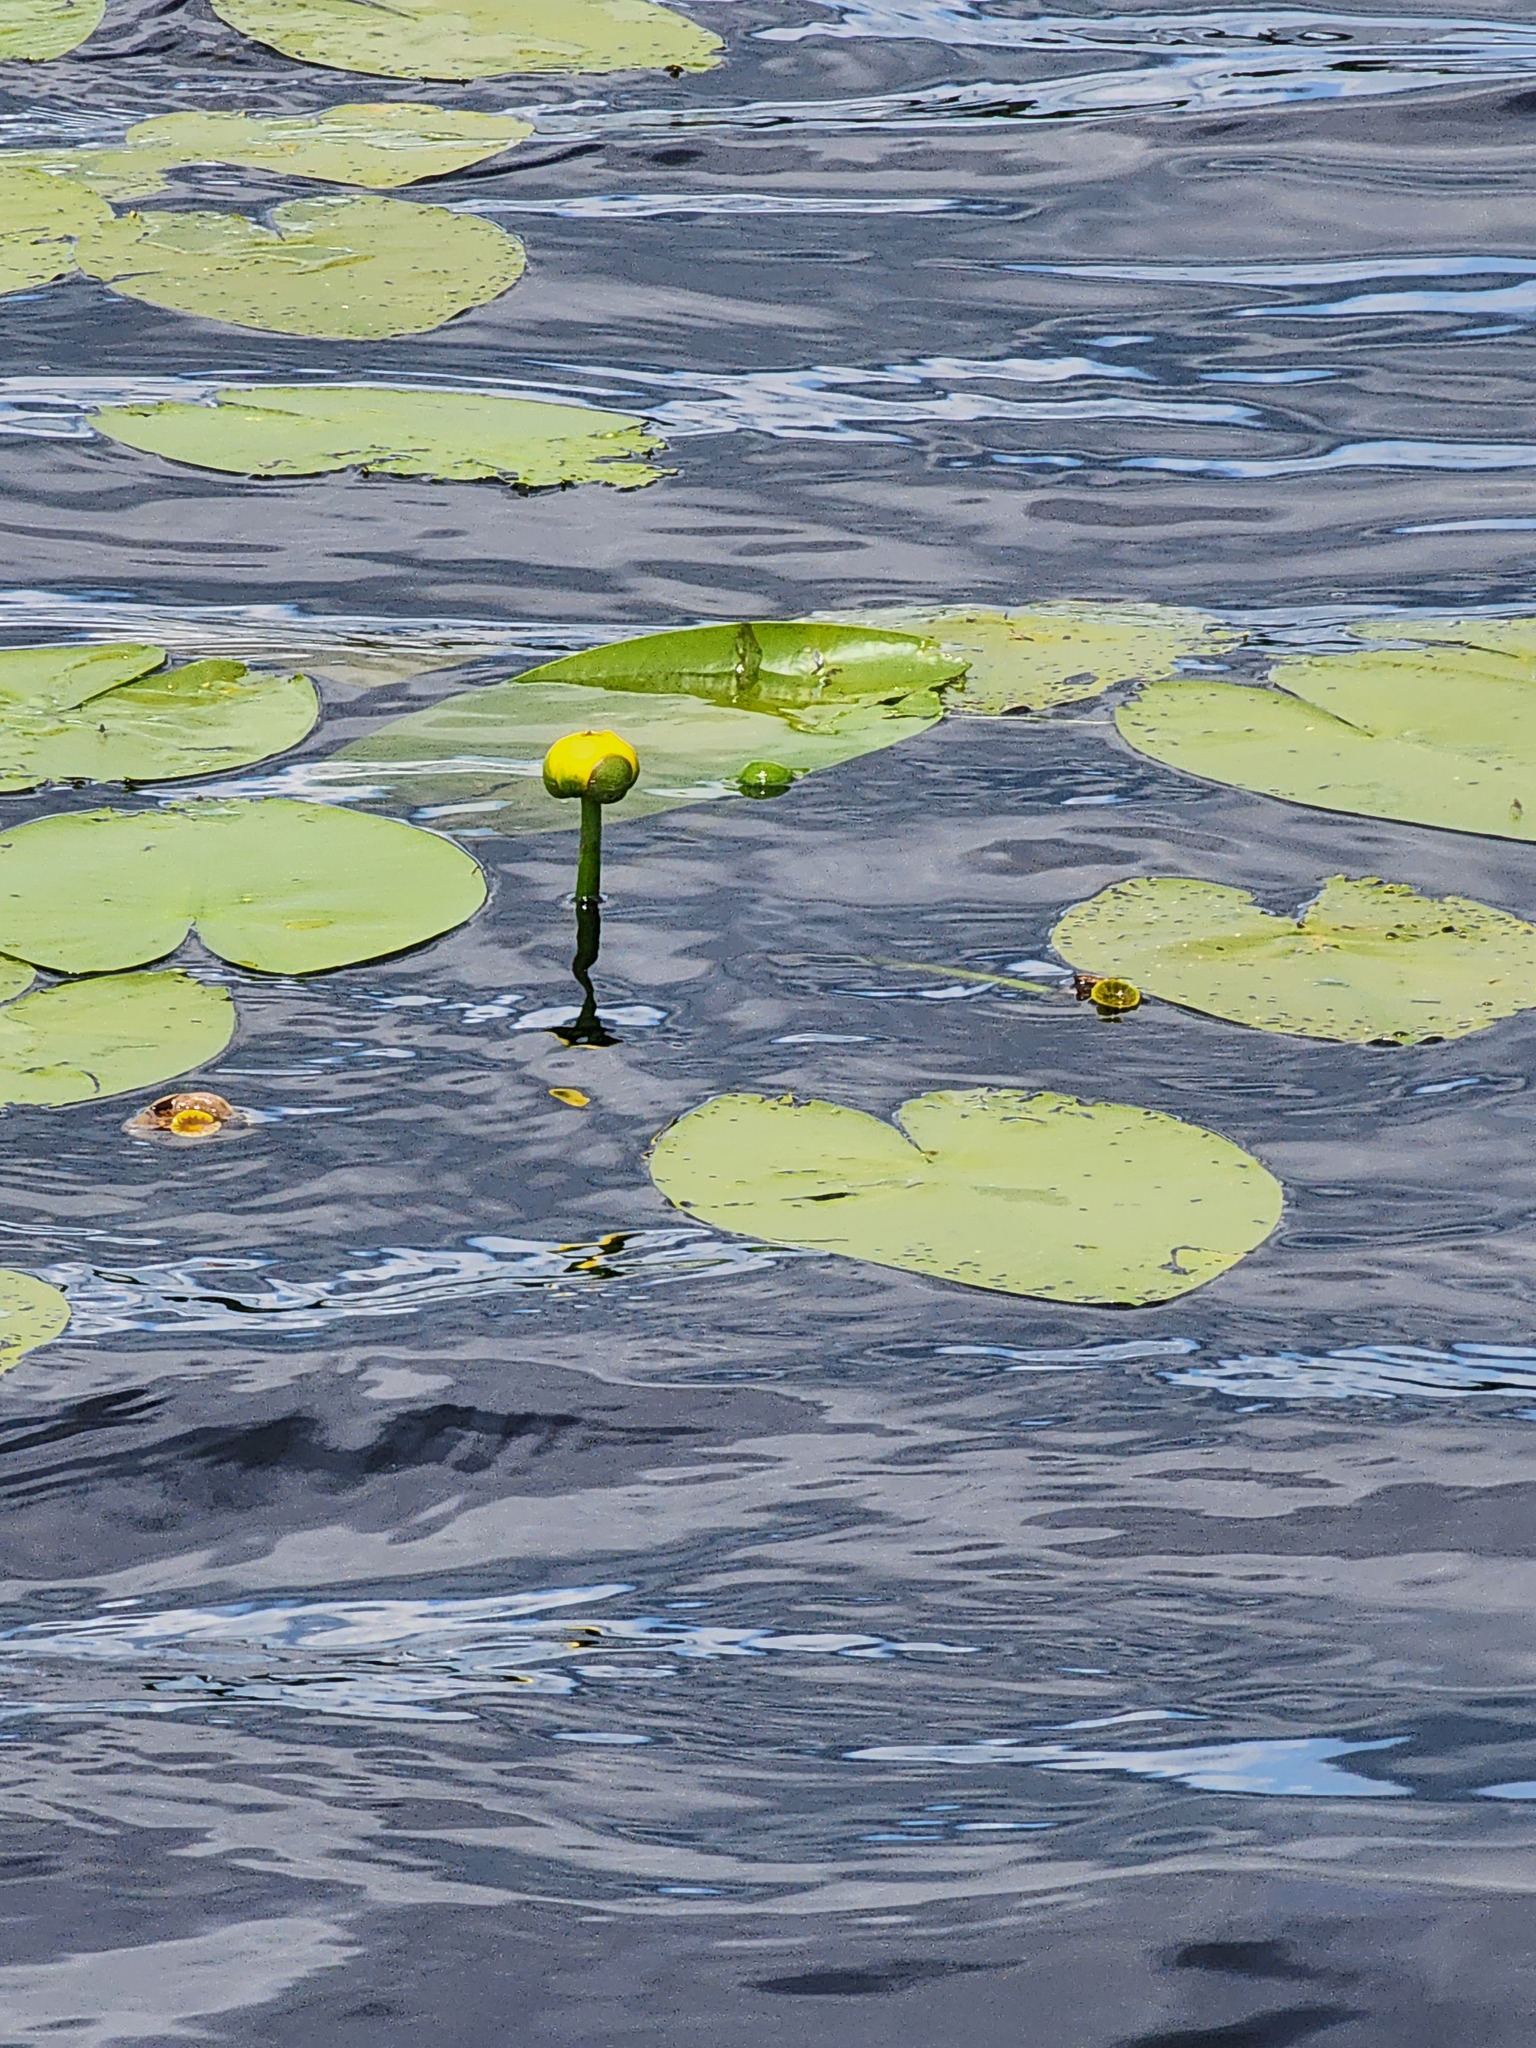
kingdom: Plantae
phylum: Tracheophyta
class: Magnoliopsida
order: Nymphaeales
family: Nymphaeaceae
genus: Nuphar
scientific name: Nuphar variegata
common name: Beaver-root
